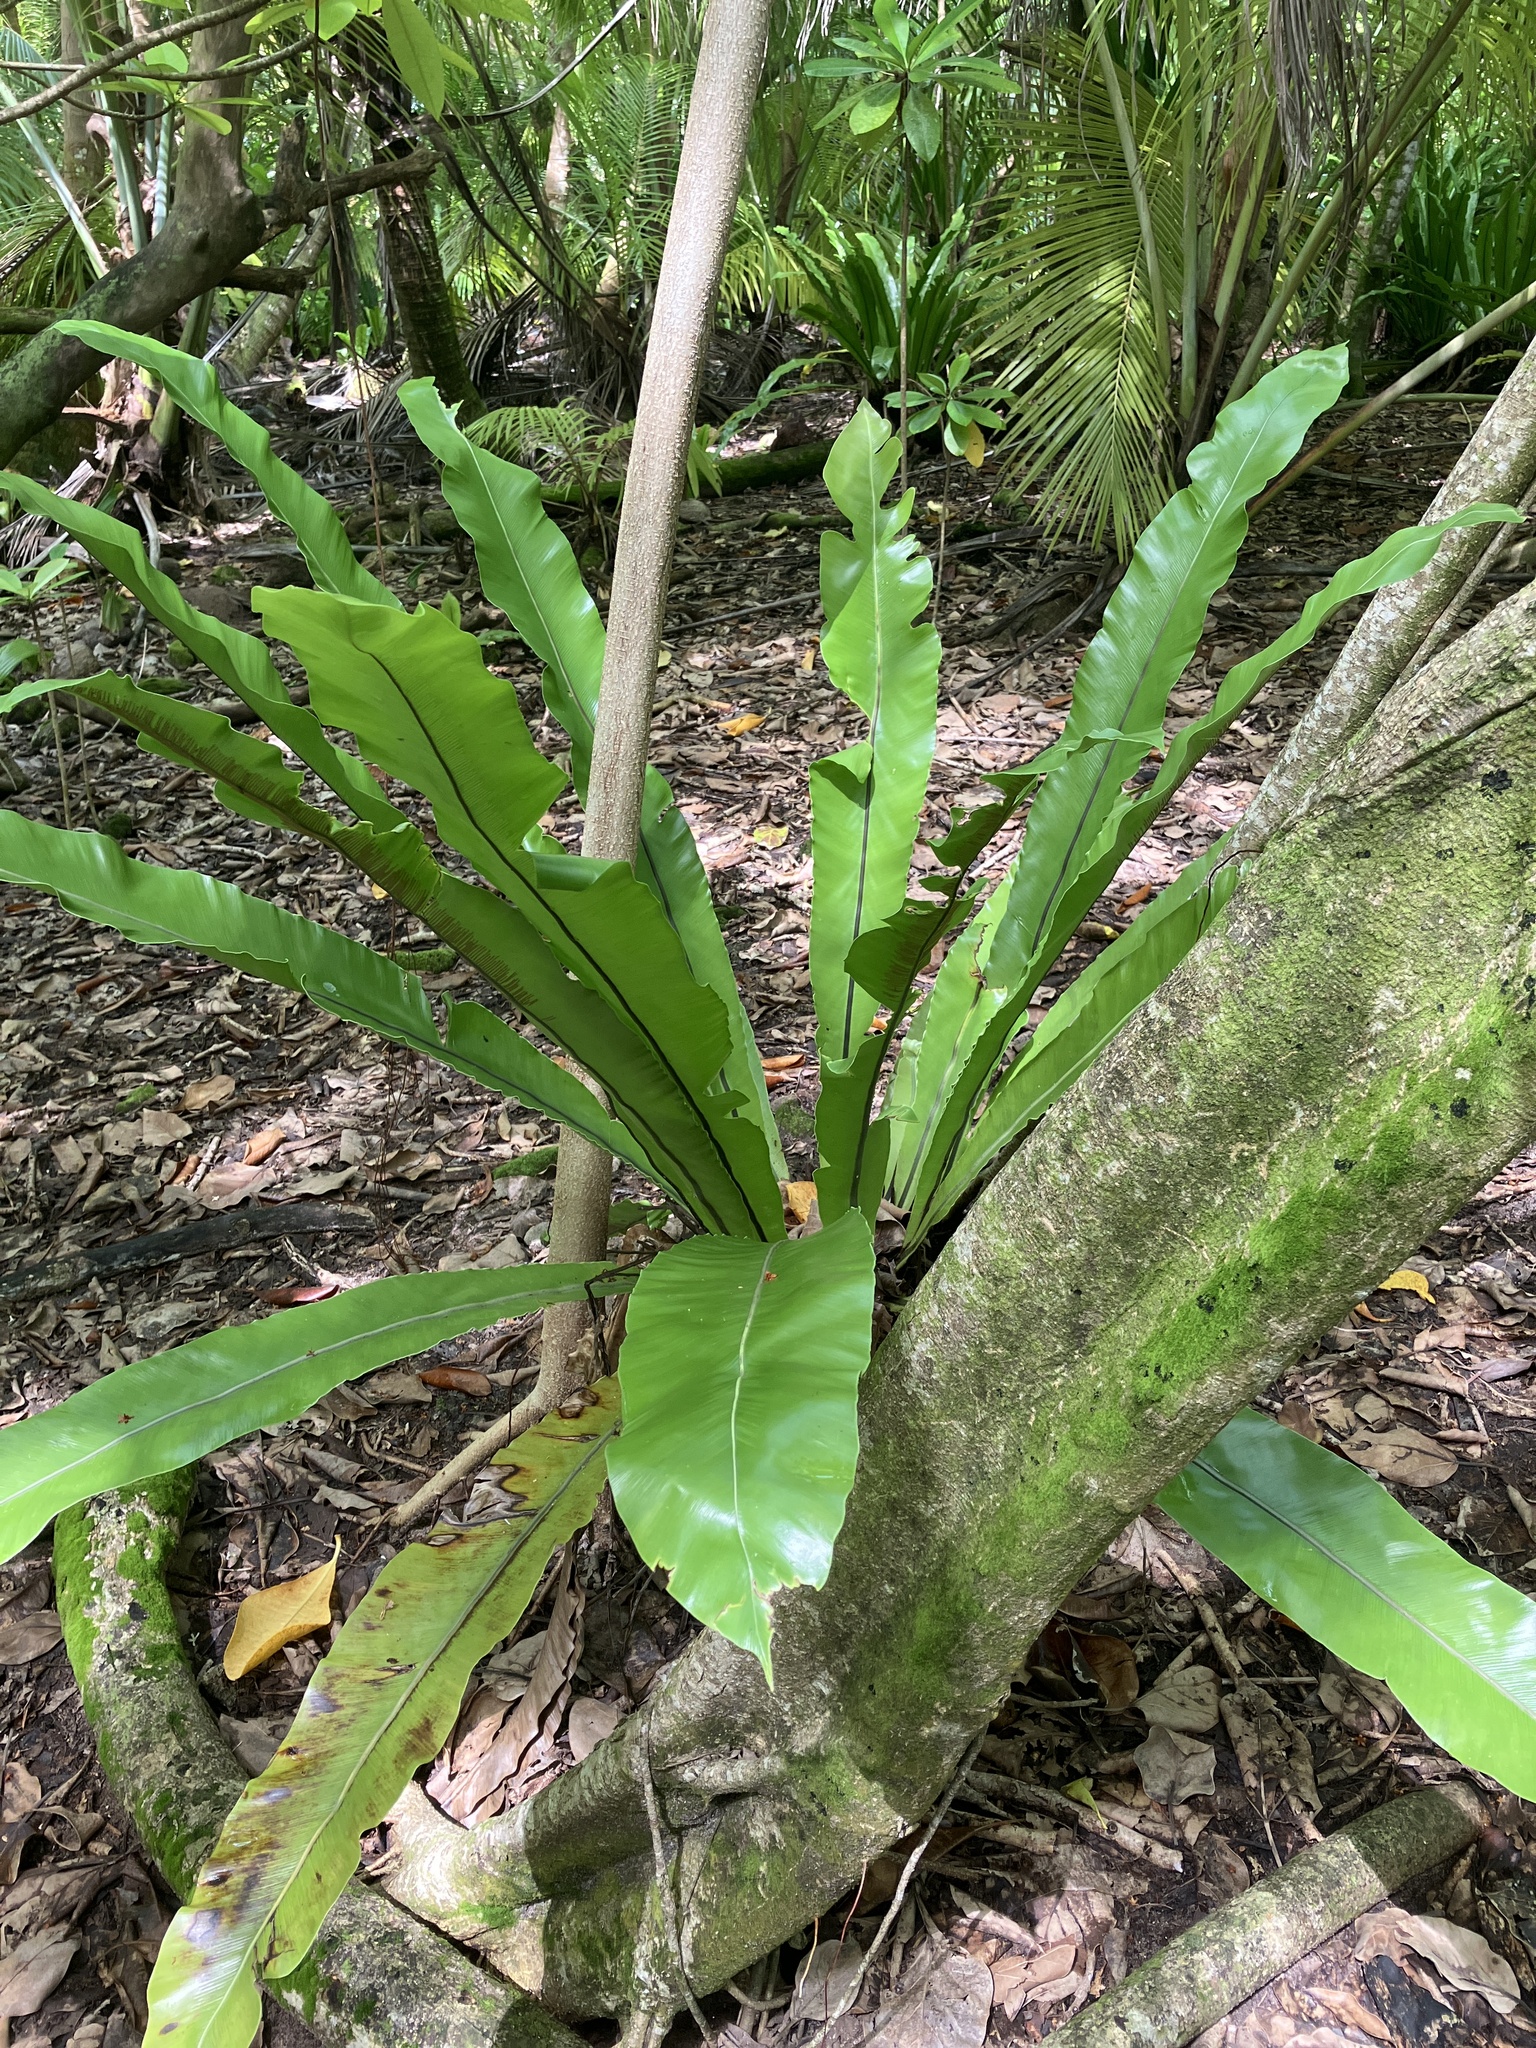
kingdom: Plantae
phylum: Tracheophyta
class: Polypodiopsida
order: Polypodiales
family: Aspleniaceae
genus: Asplenium
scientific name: Asplenium nidus
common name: Bird's-nest fern
